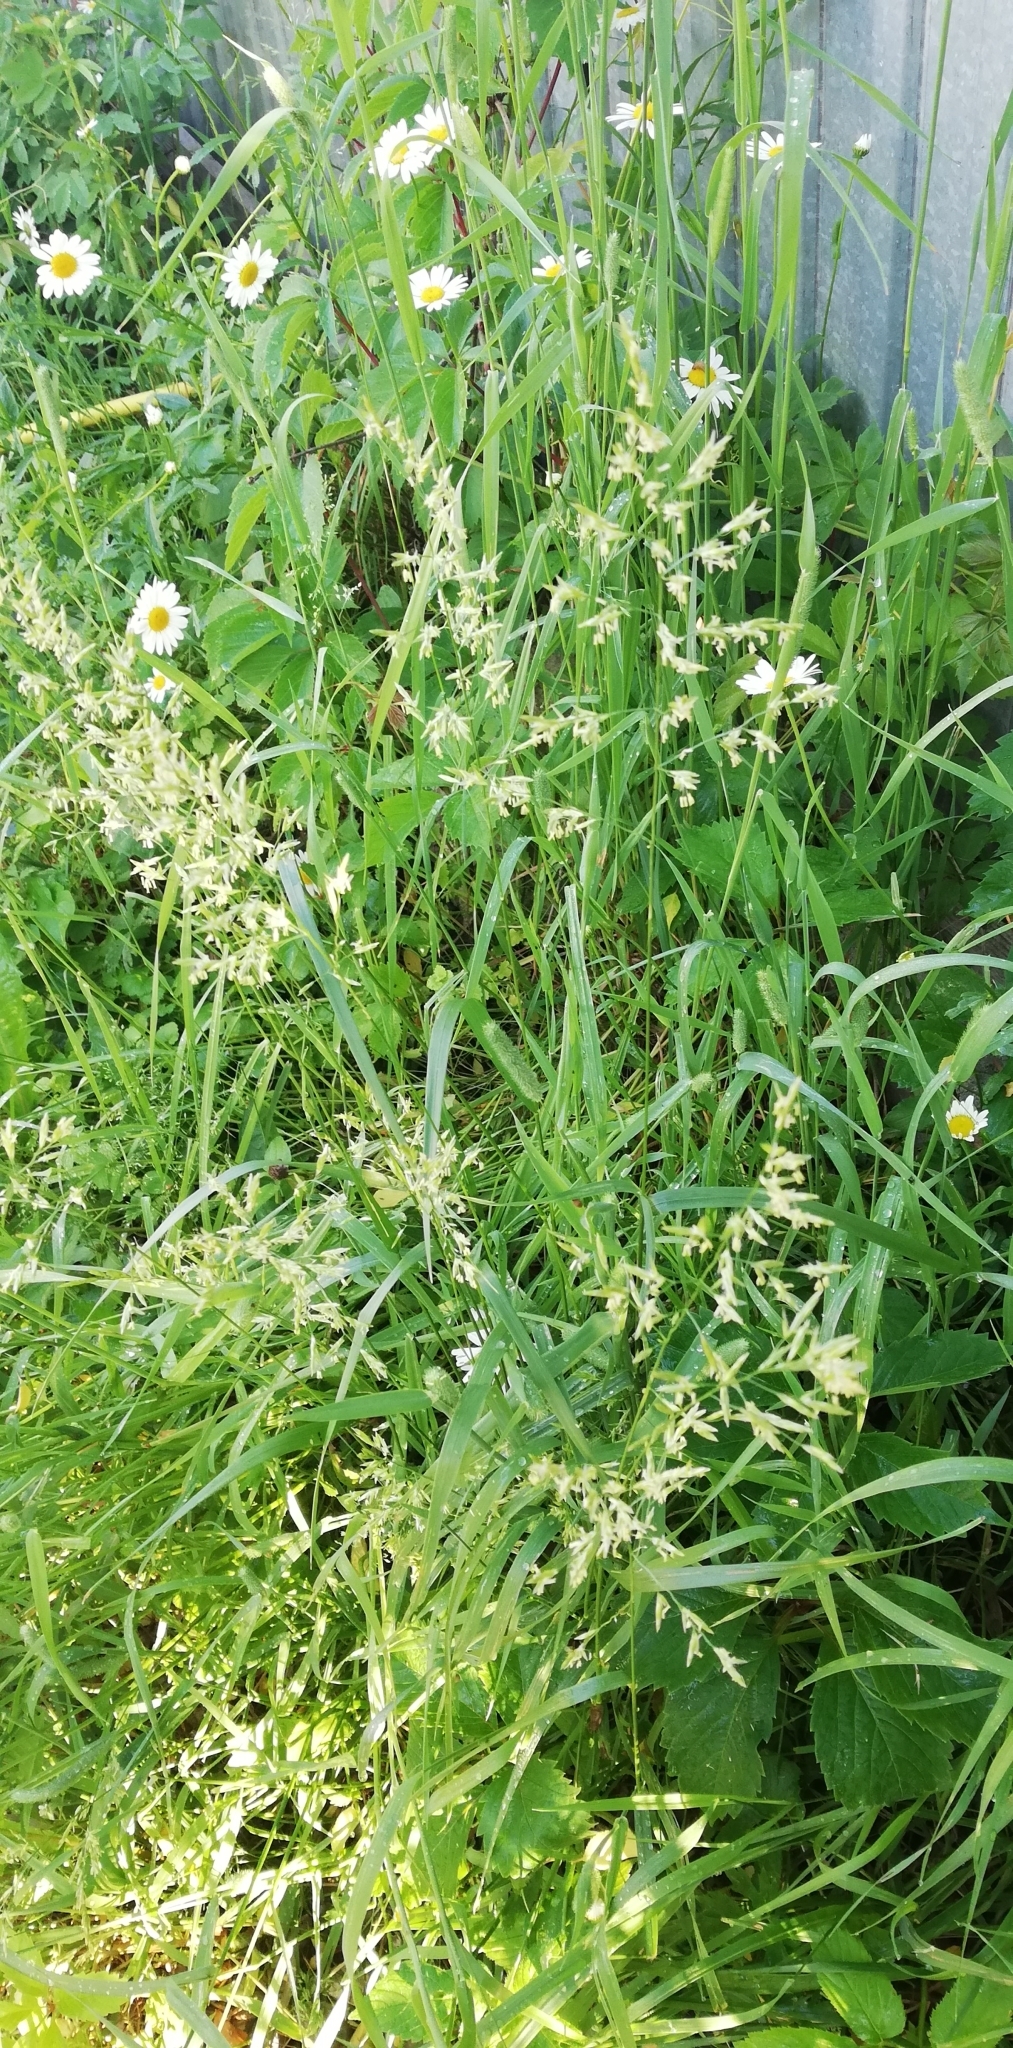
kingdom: Plantae
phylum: Tracheophyta
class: Liliopsida
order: Poales
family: Poaceae
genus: Lolium
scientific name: Lolium pratense
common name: Dover grass
